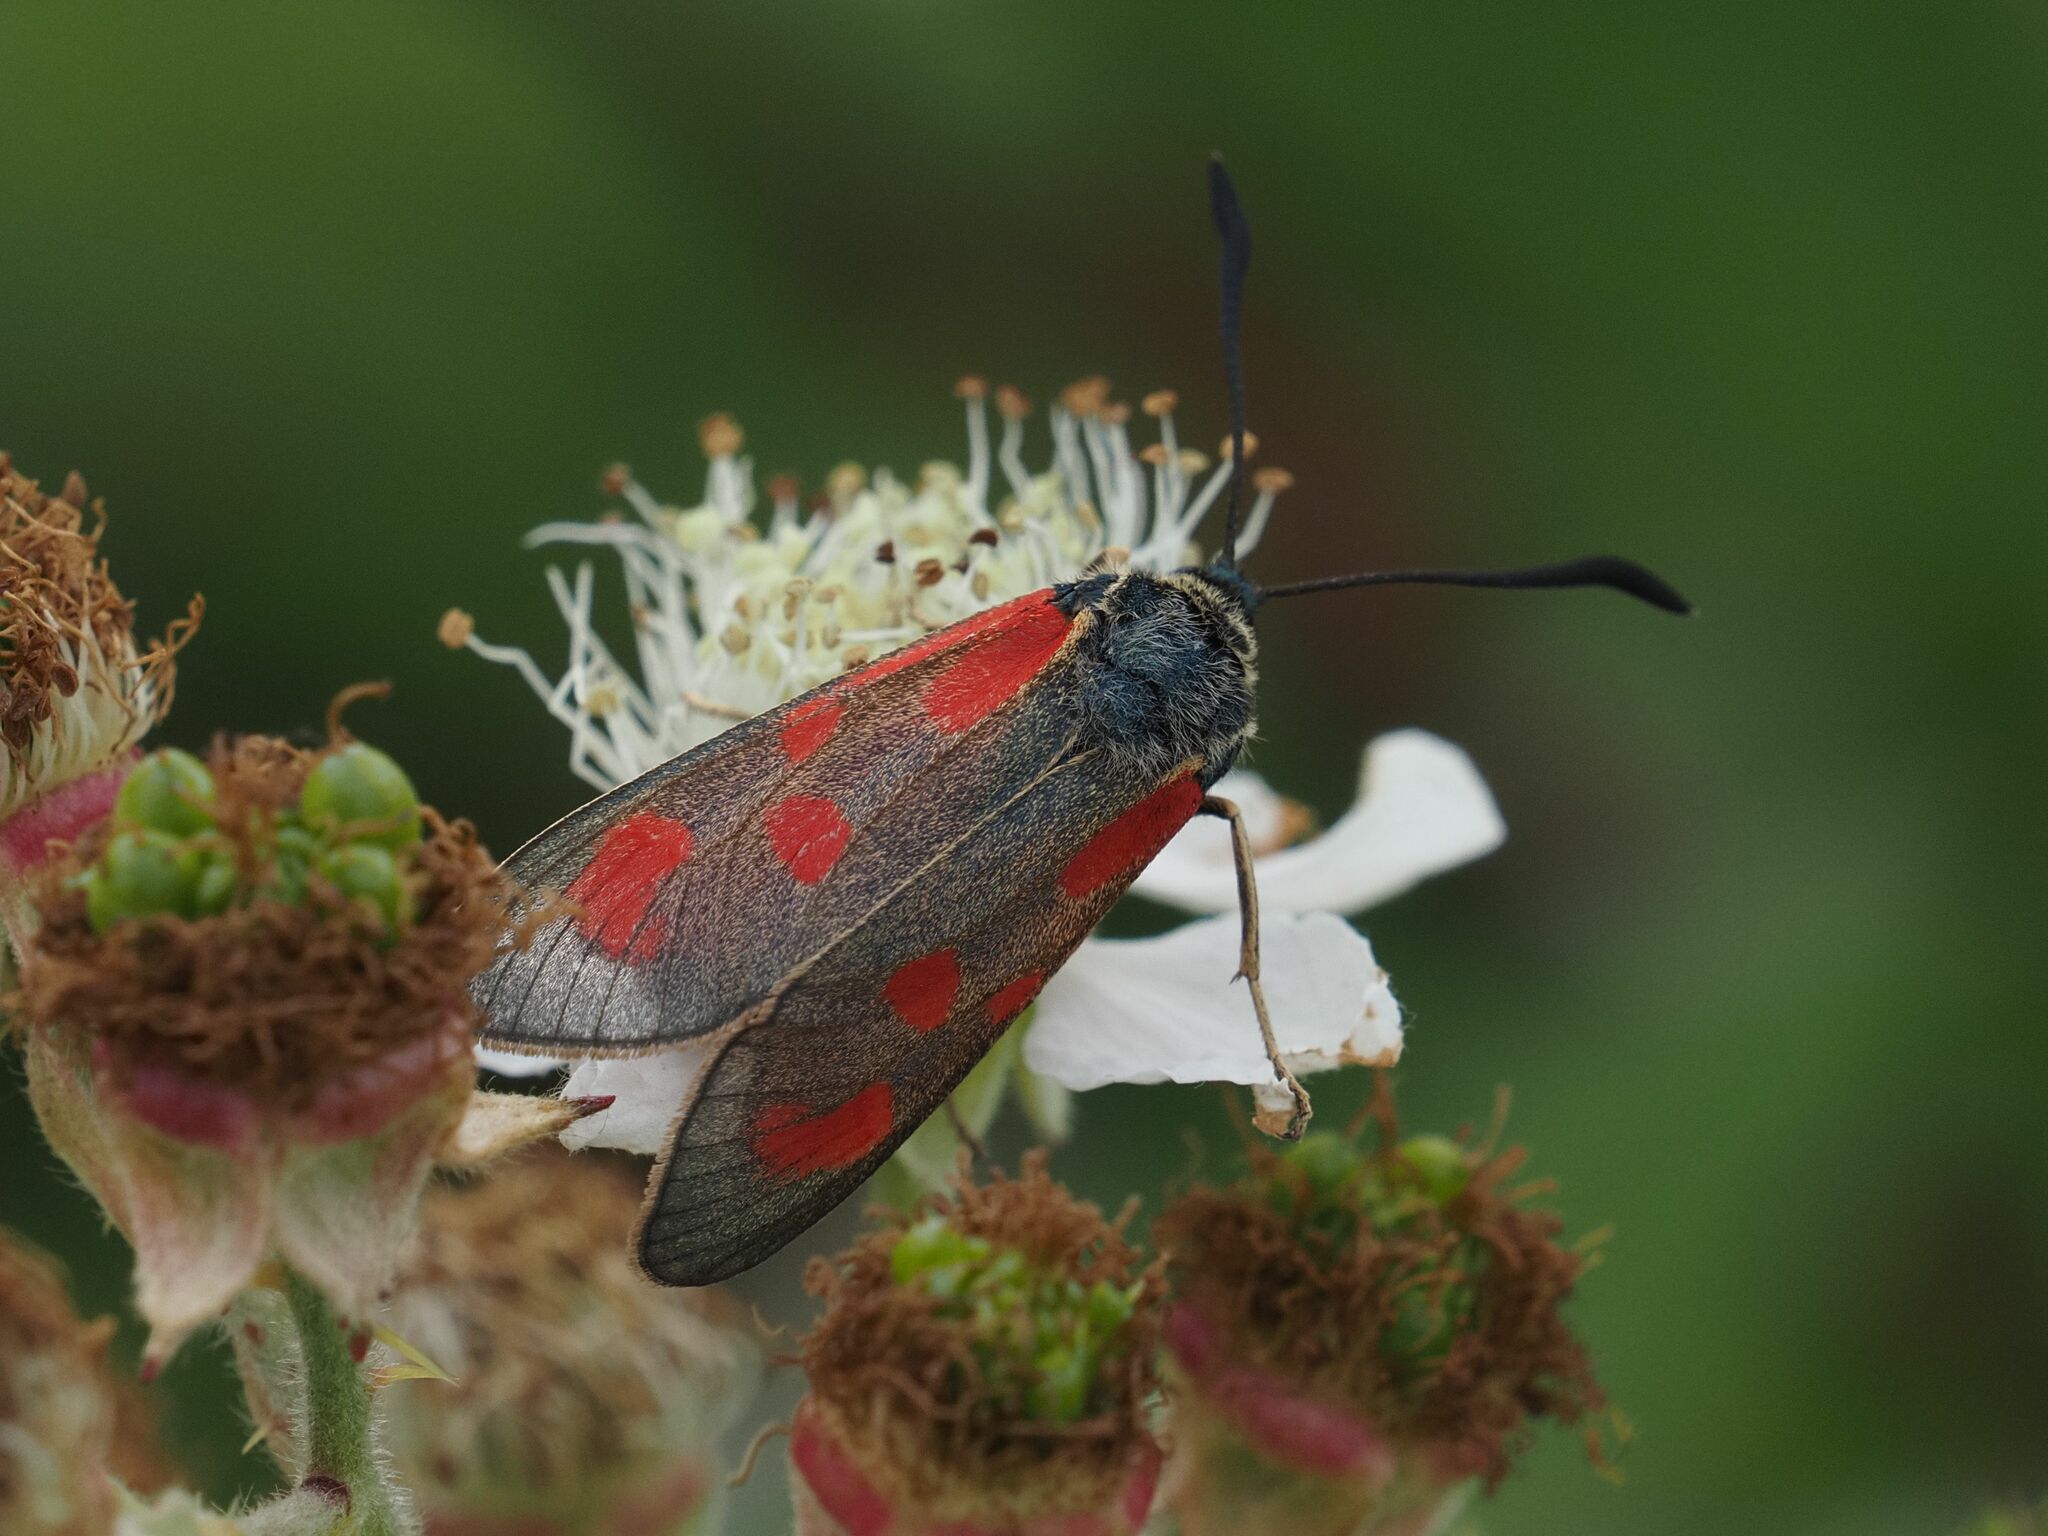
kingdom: Animalia
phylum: Arthropoda
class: Insecta
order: Lepidoptera
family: Zygaenidae
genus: Zygaena
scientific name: Zygaena loti
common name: Slender scotch burnet
